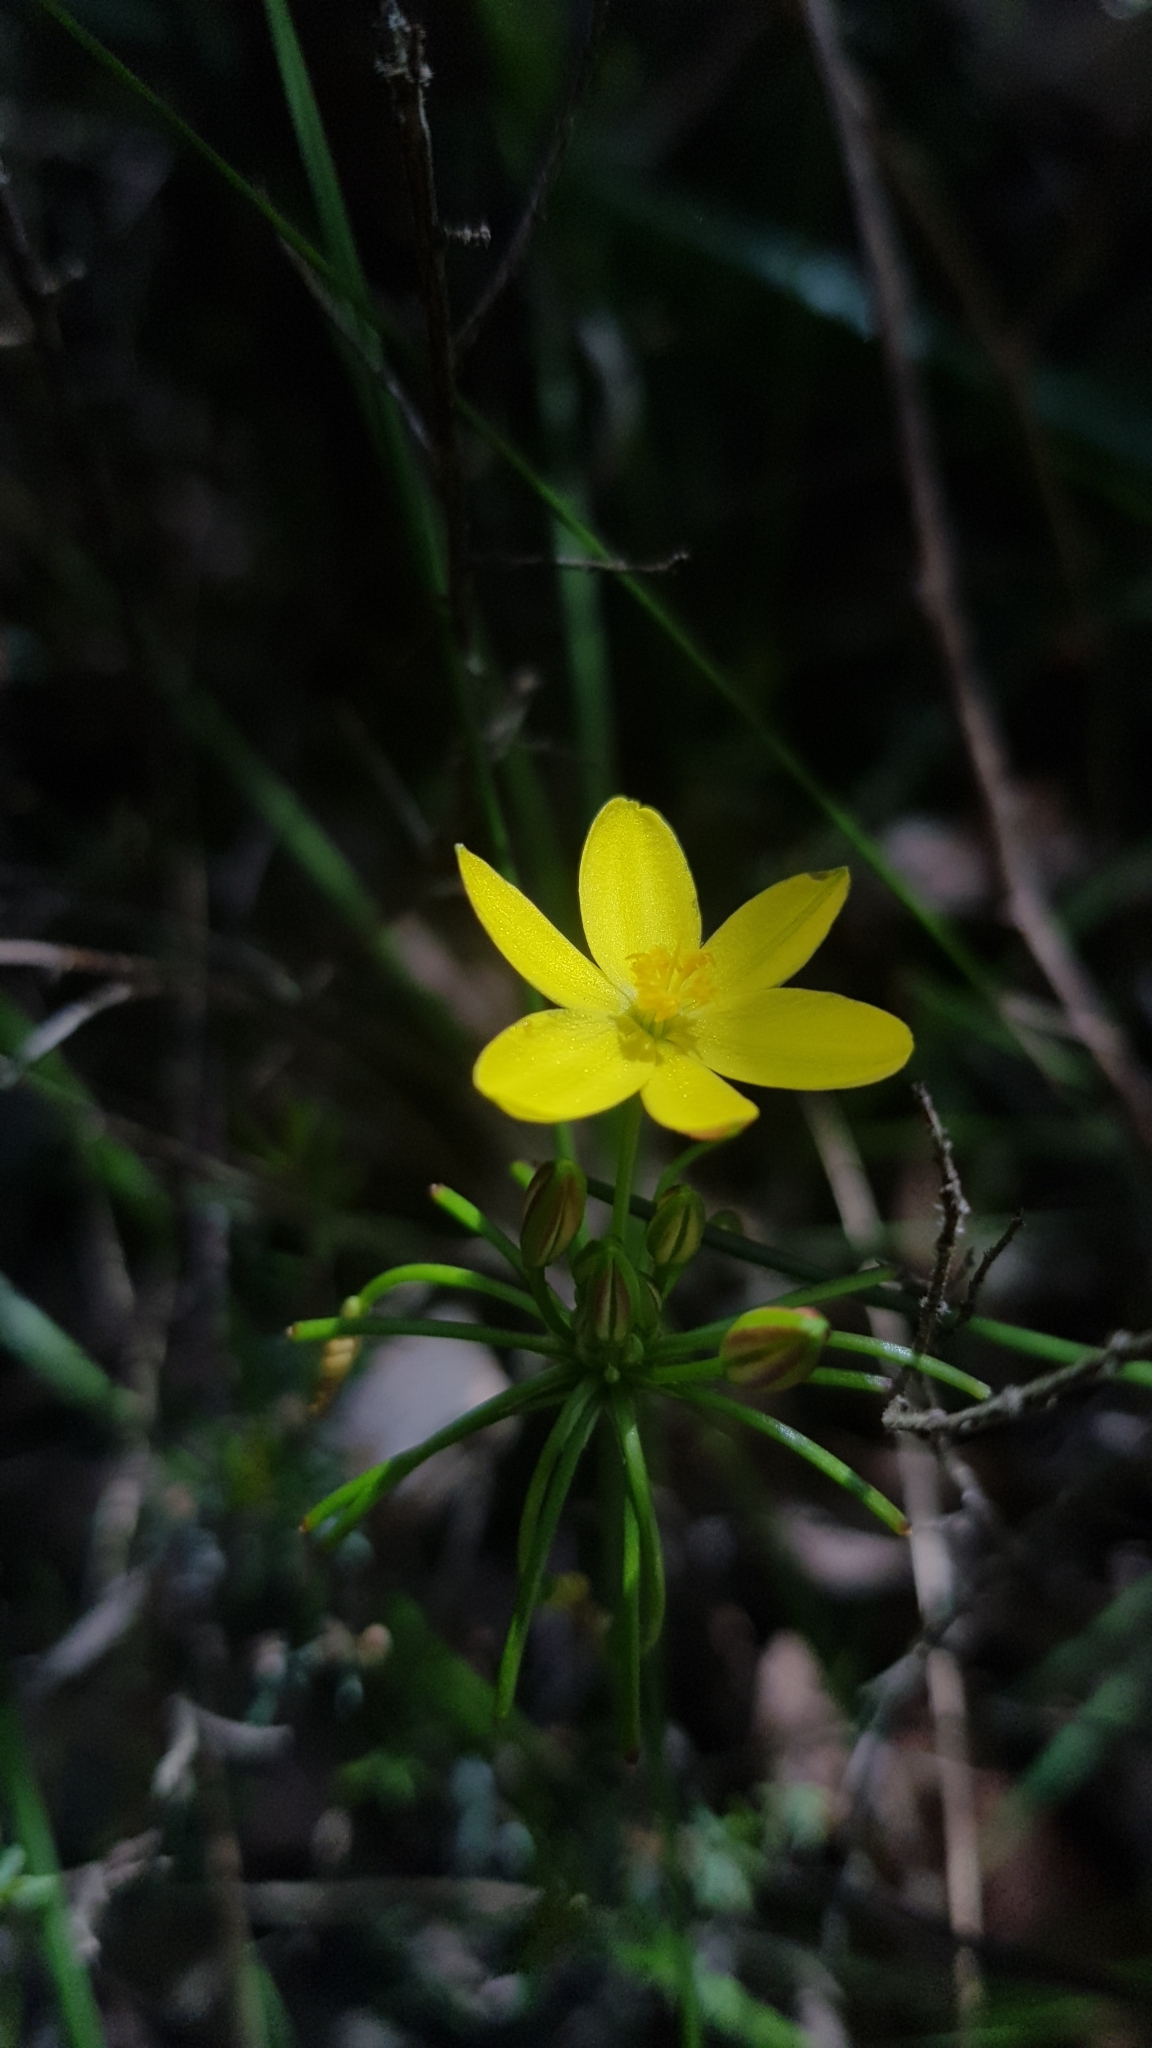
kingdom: Plantae
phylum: Tracheophyta
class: Liliopsida
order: Asparagales
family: Asphodelaceae
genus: Tricoryne
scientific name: Tricoryne simplex
